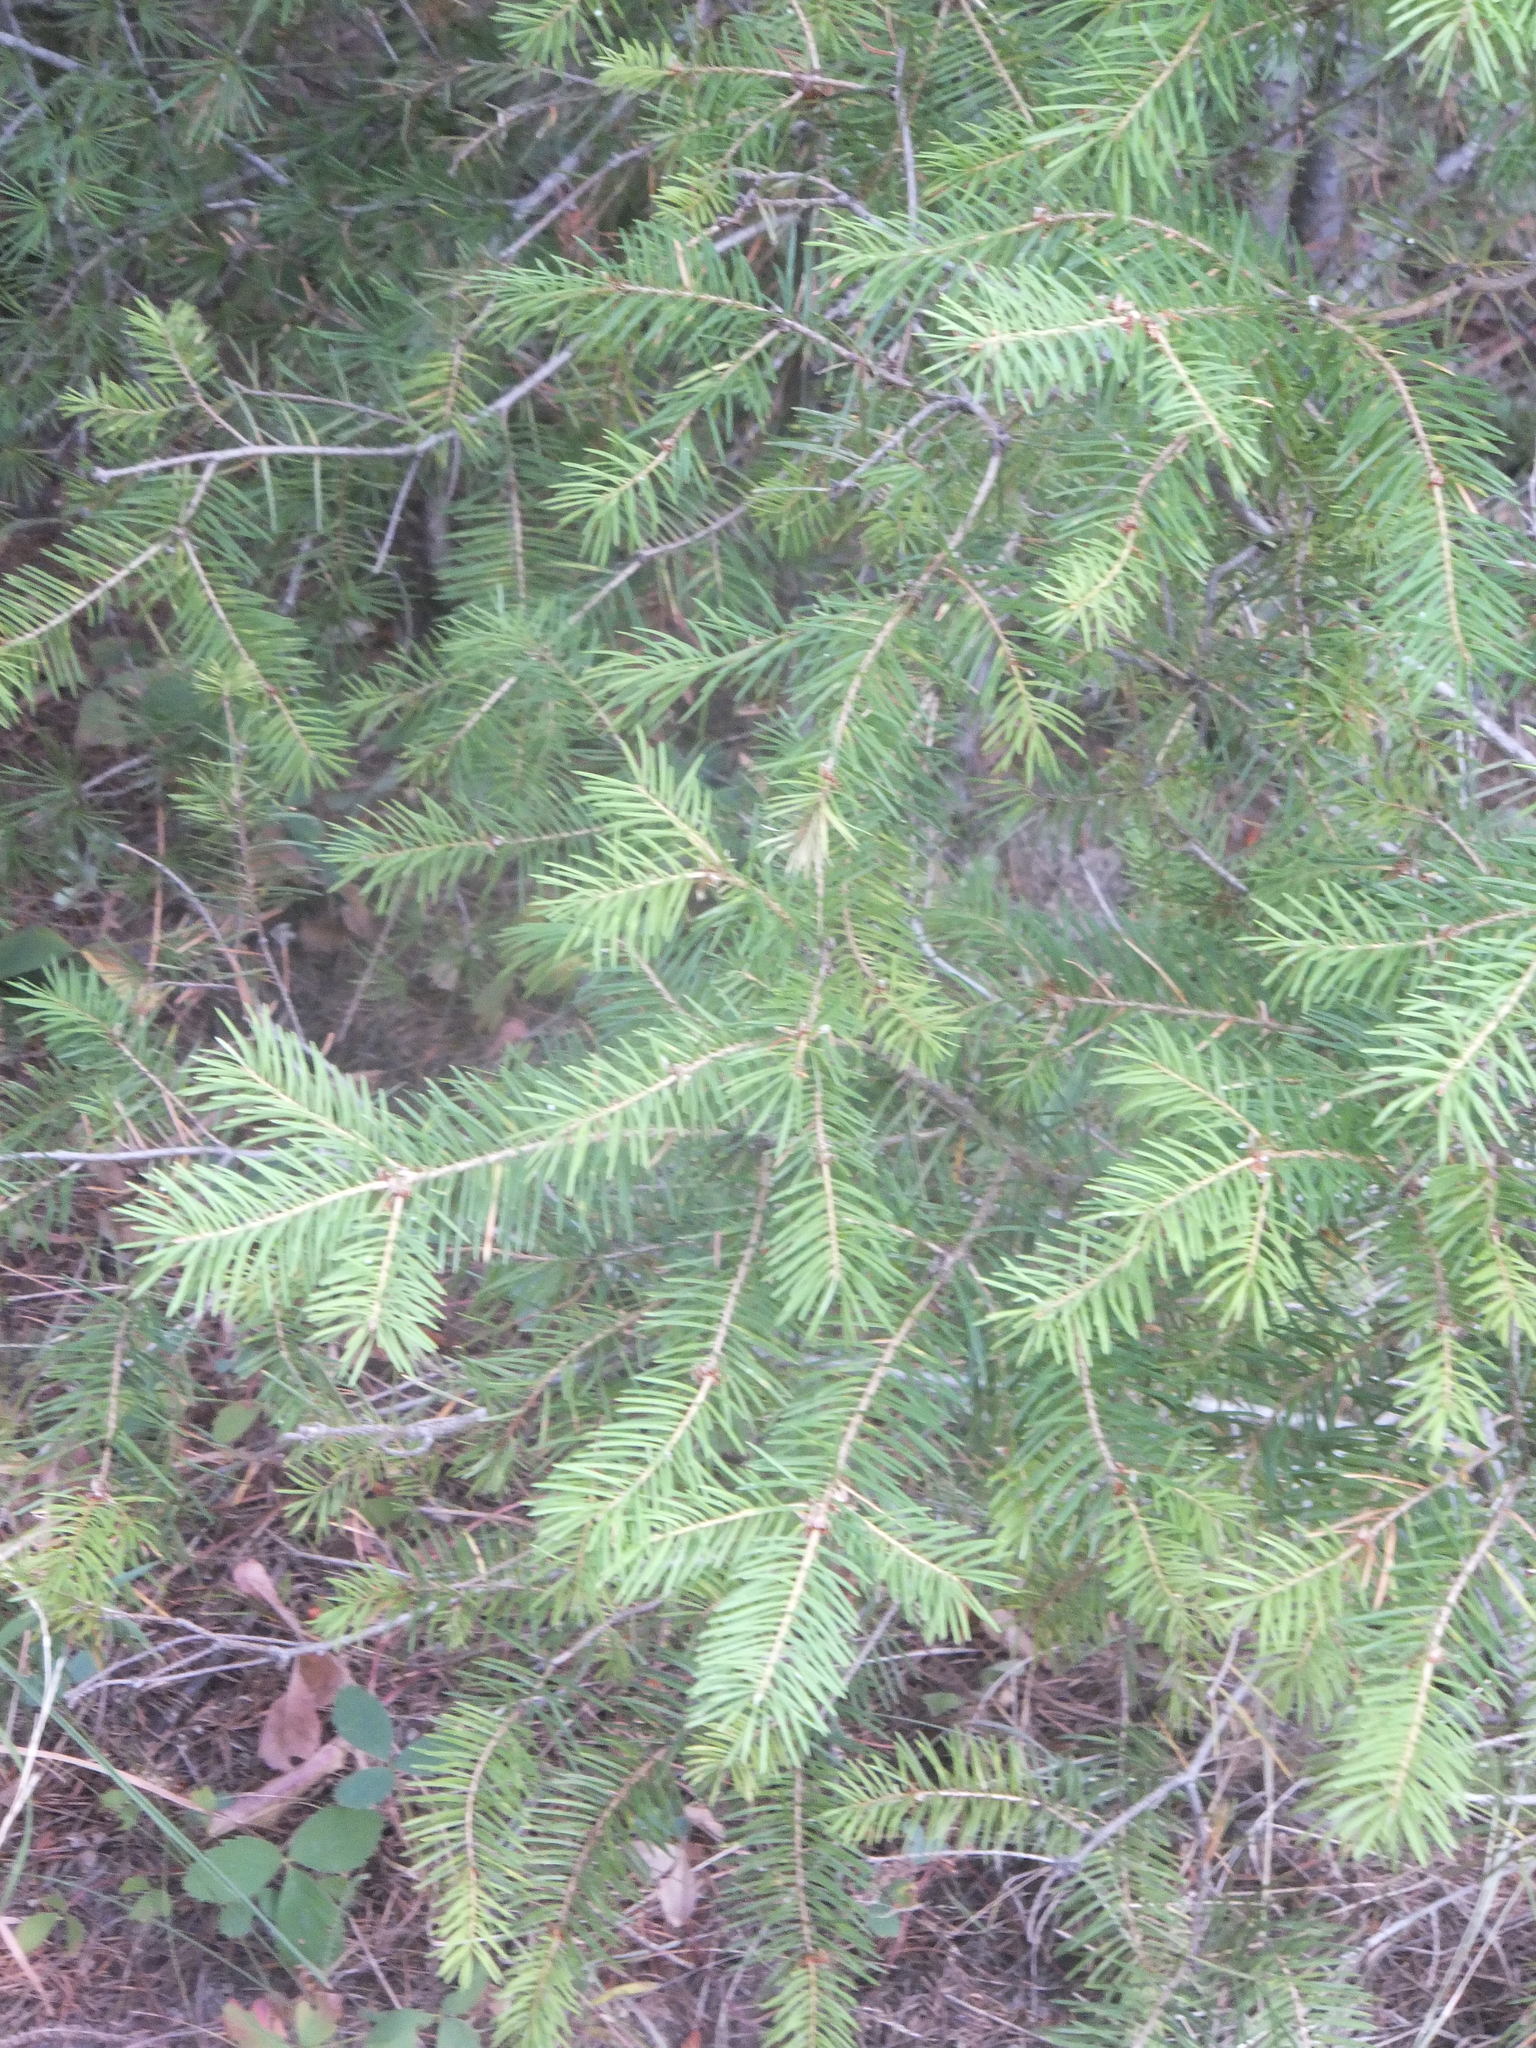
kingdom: Plantae
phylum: Tracheophyta
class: Pinopsida
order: Pinales
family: Pinaceae
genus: Pseudotsuga
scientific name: Pseudotsuga menziesii
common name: Douglas fir
